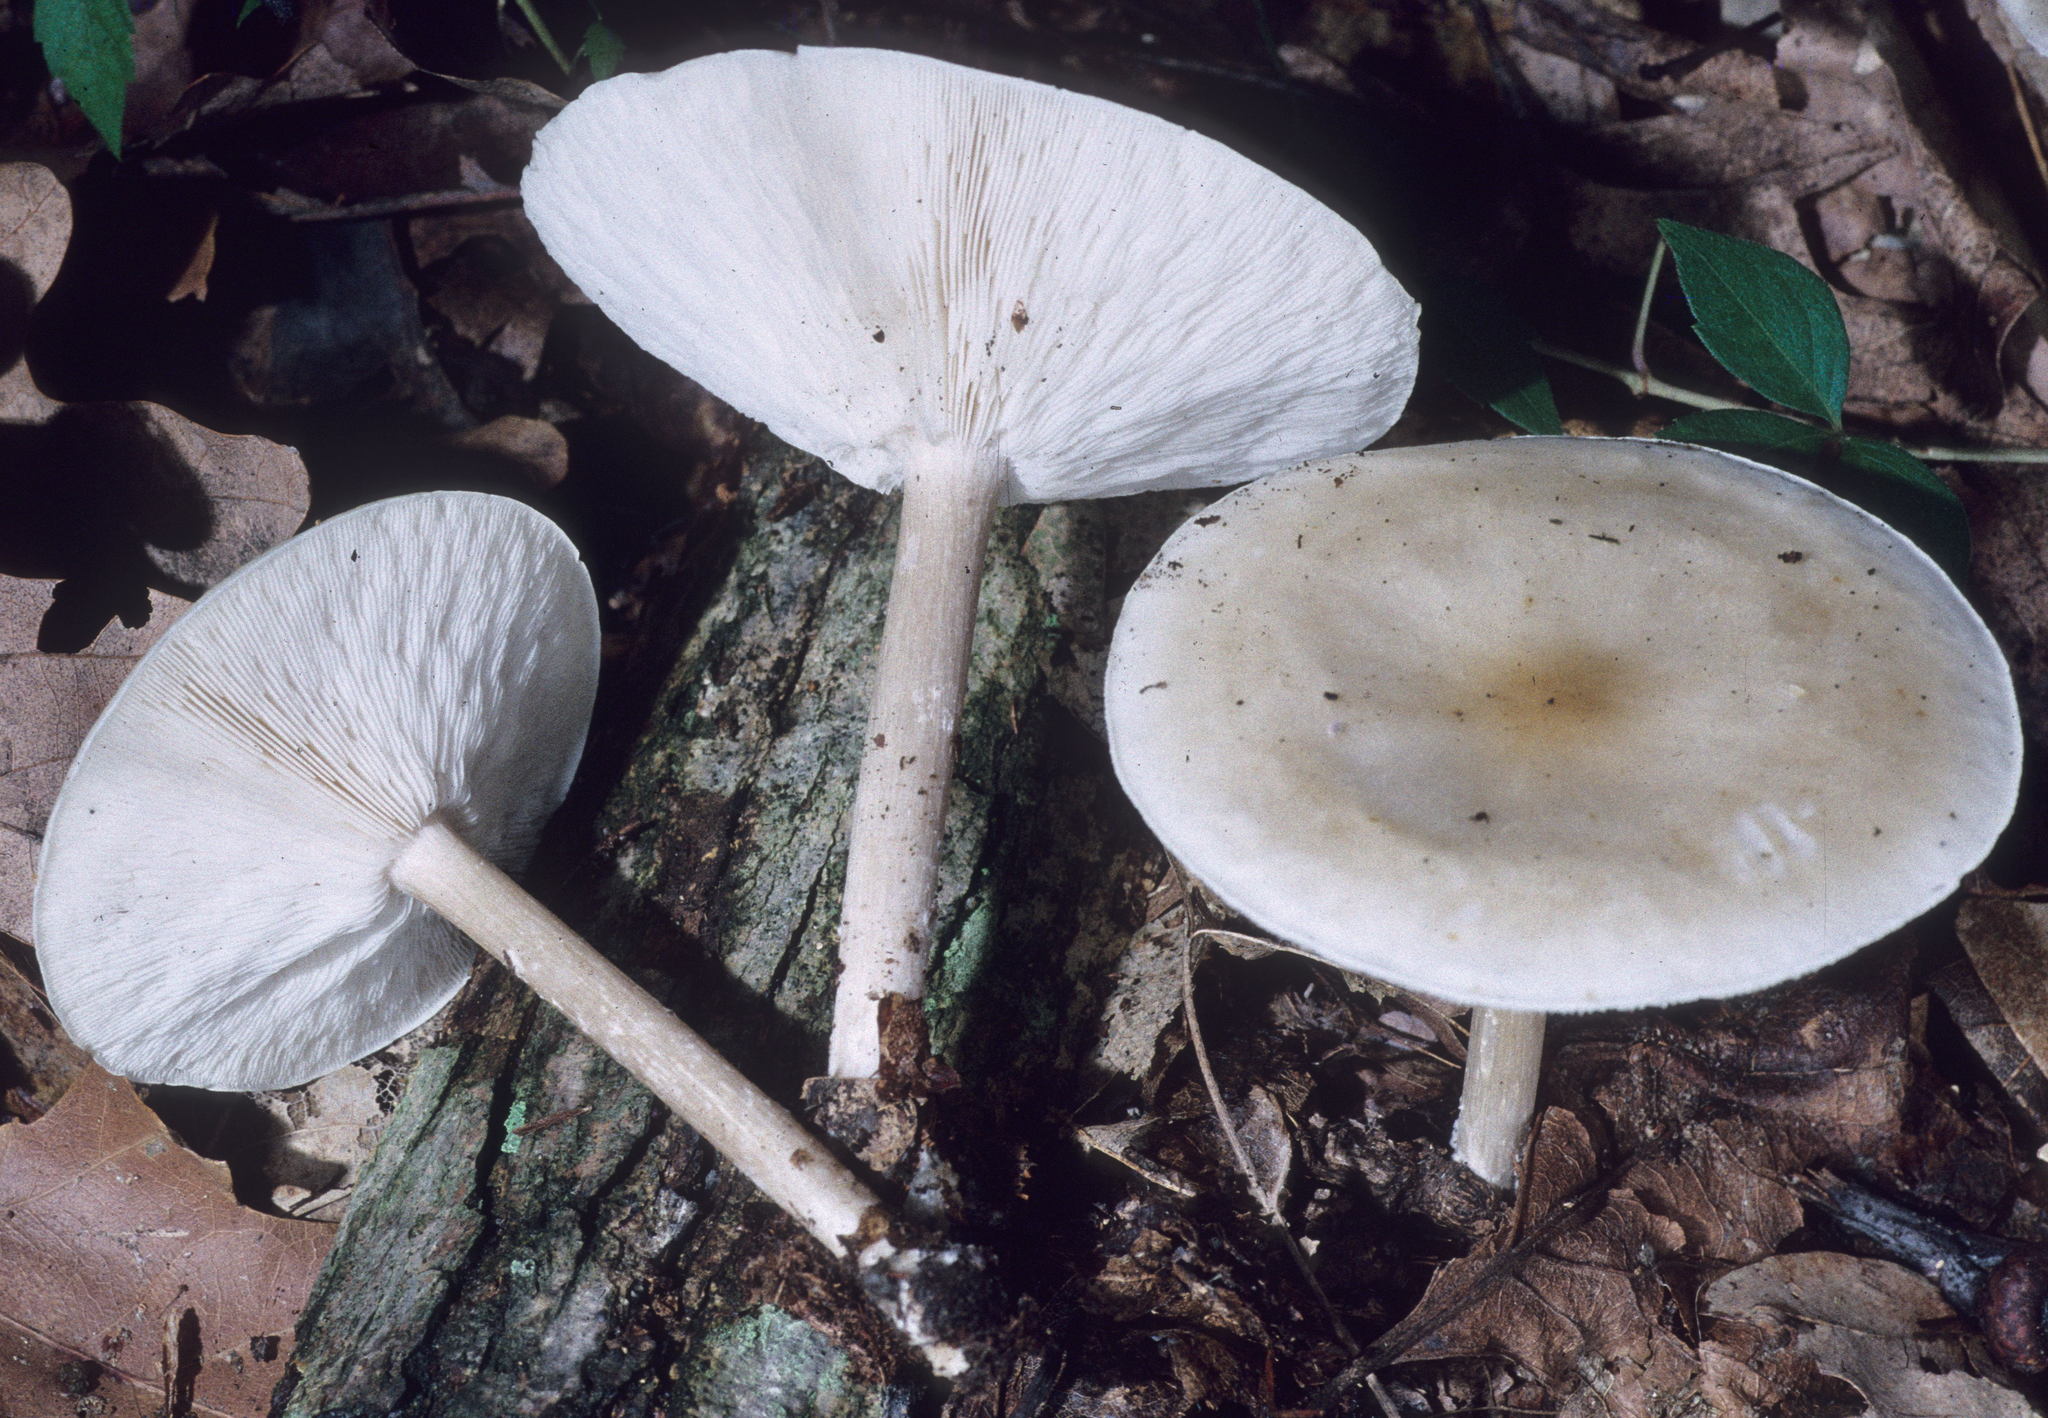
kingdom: Fungi
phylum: Basidiomycota
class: Agaricomycetes
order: Agaricales
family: Tricholomataceae
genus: Collybia
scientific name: Collybia alboflavida
